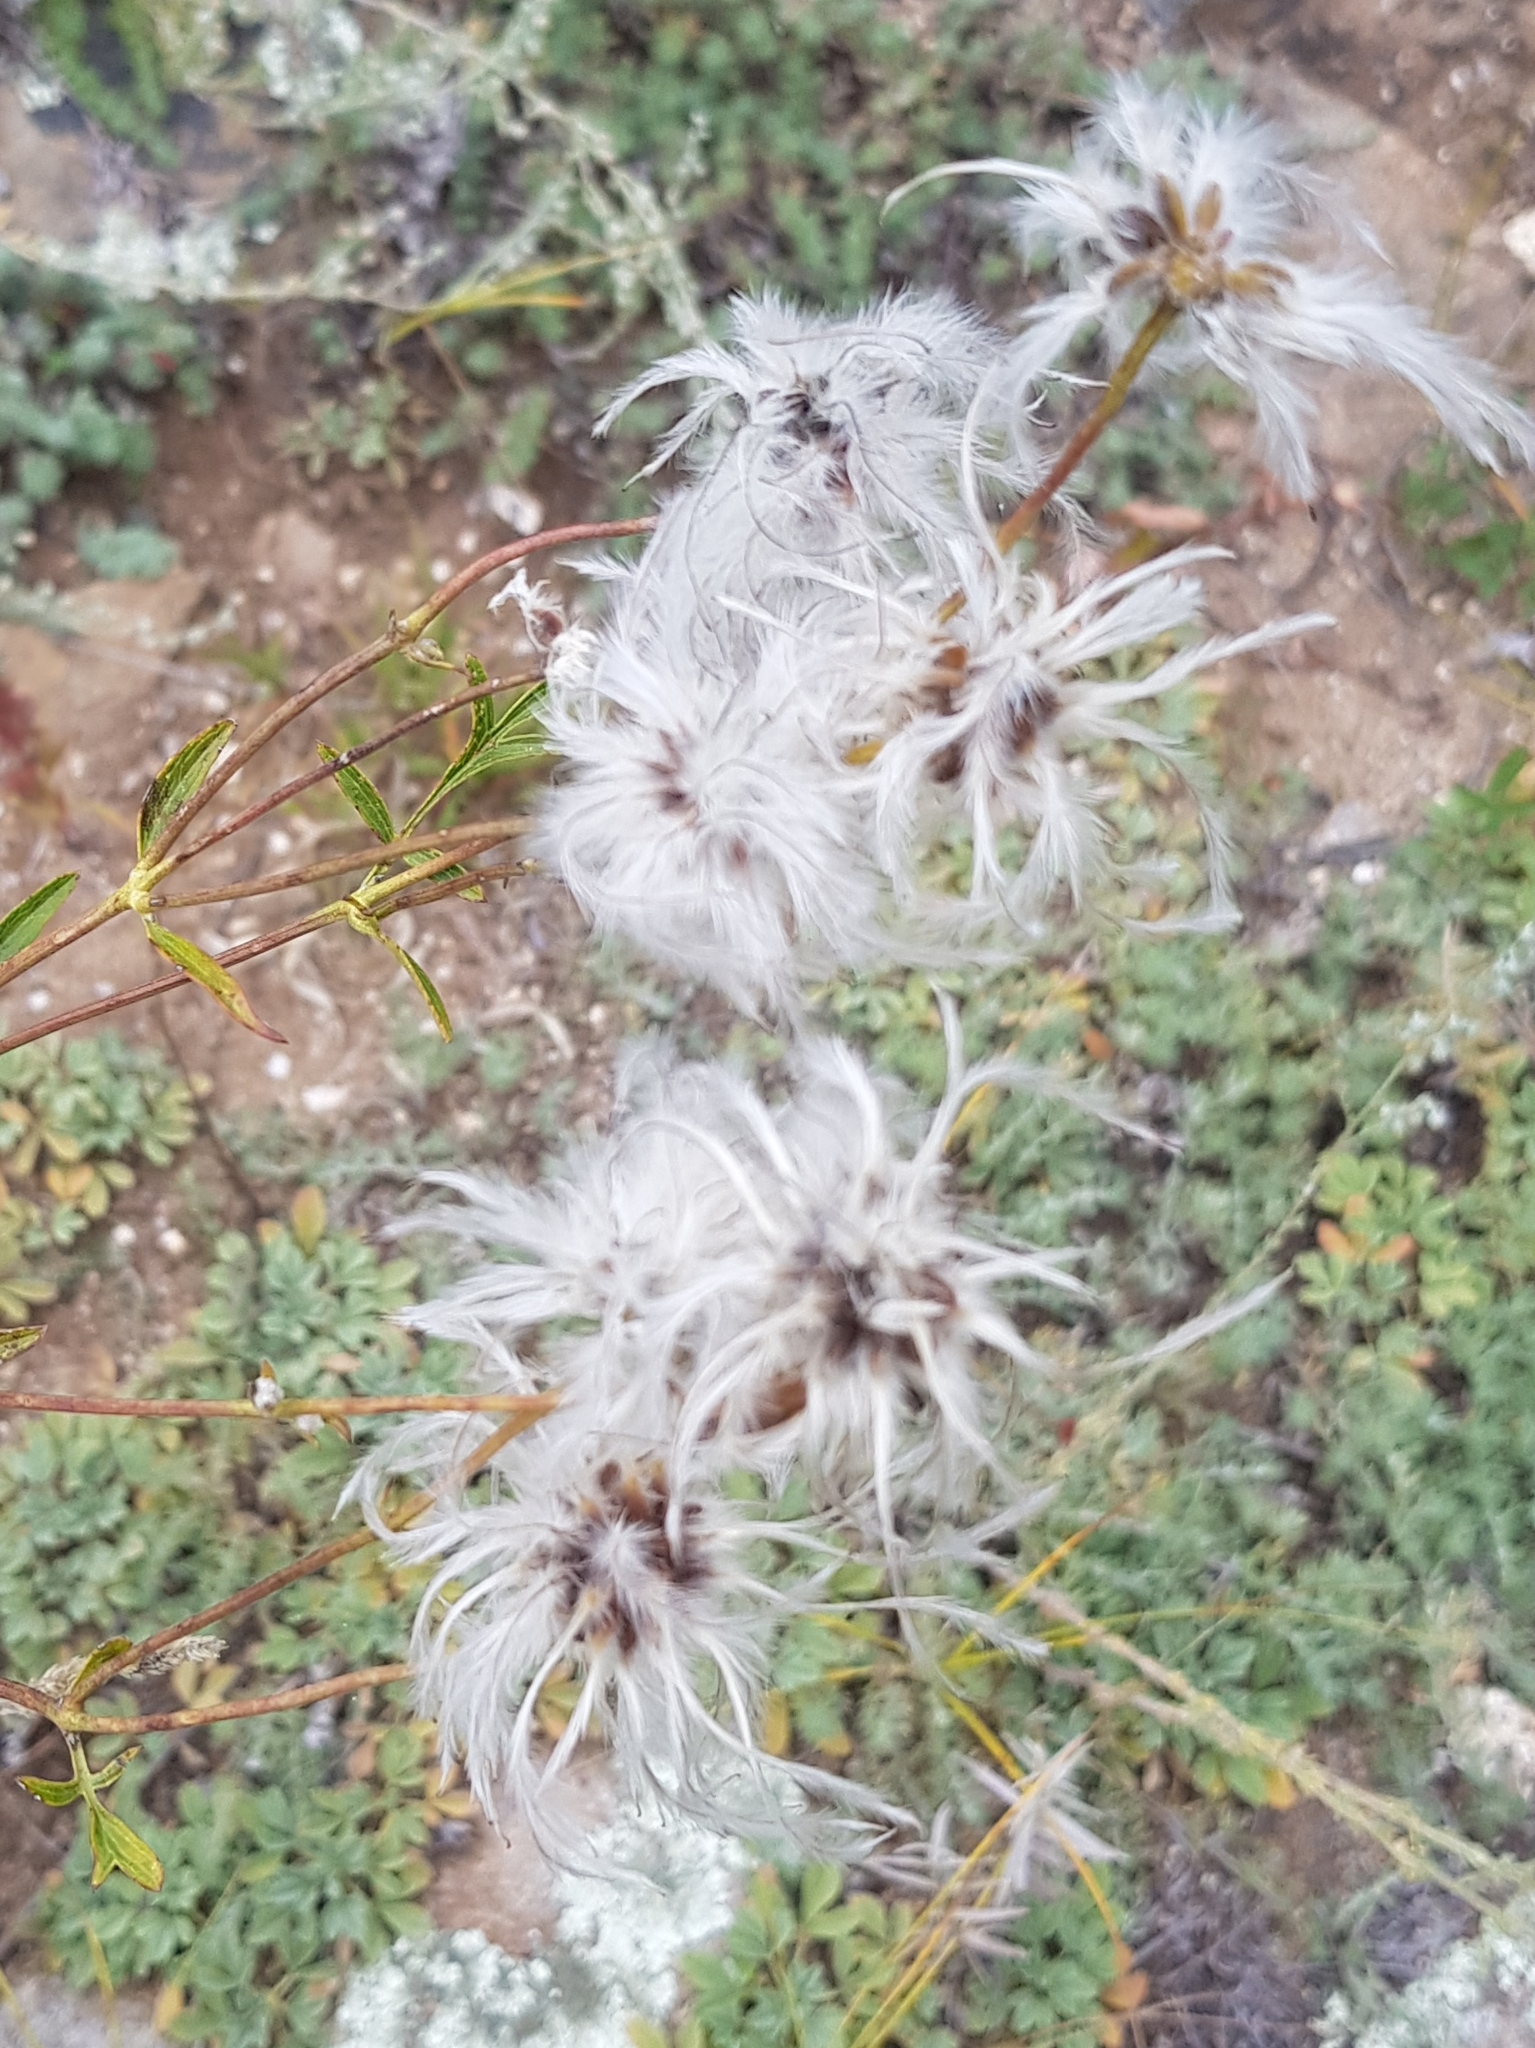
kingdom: Plantae
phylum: Tracheophyta
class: Magnoliopsida
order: Ranunculales
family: Ranunculaceae
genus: Clematis
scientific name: Clematis hexapetala
